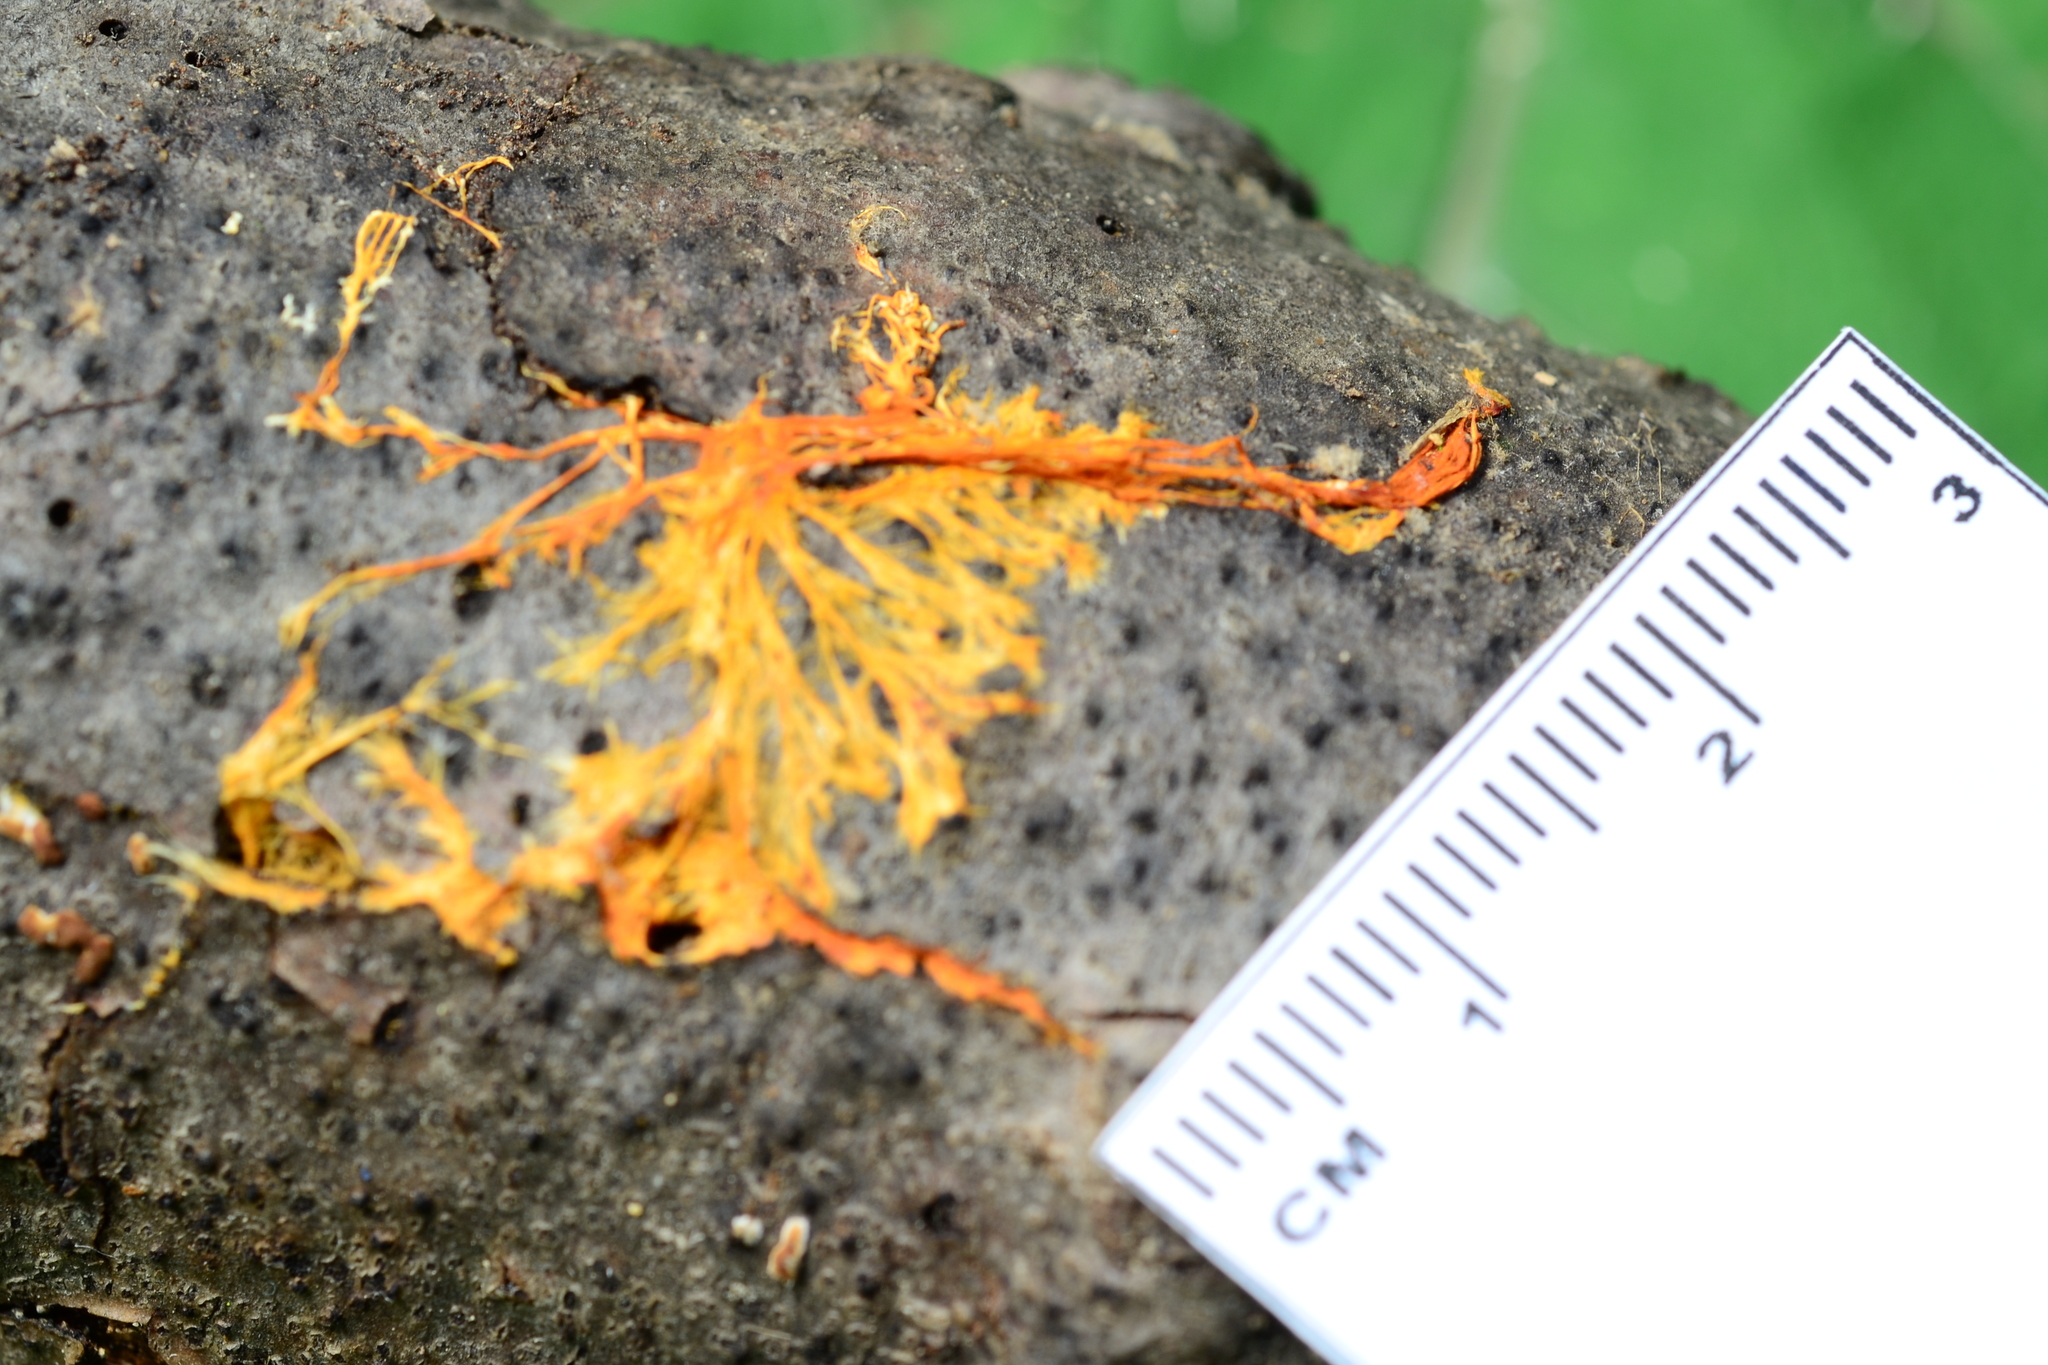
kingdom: Fungi
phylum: Basidiomycota
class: Agaricomycetes
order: Polyporales
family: Meruliaceae
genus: Hydnophlebia
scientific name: Hydnophlebia chrysorhiza
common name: Spreading yellow tooth
